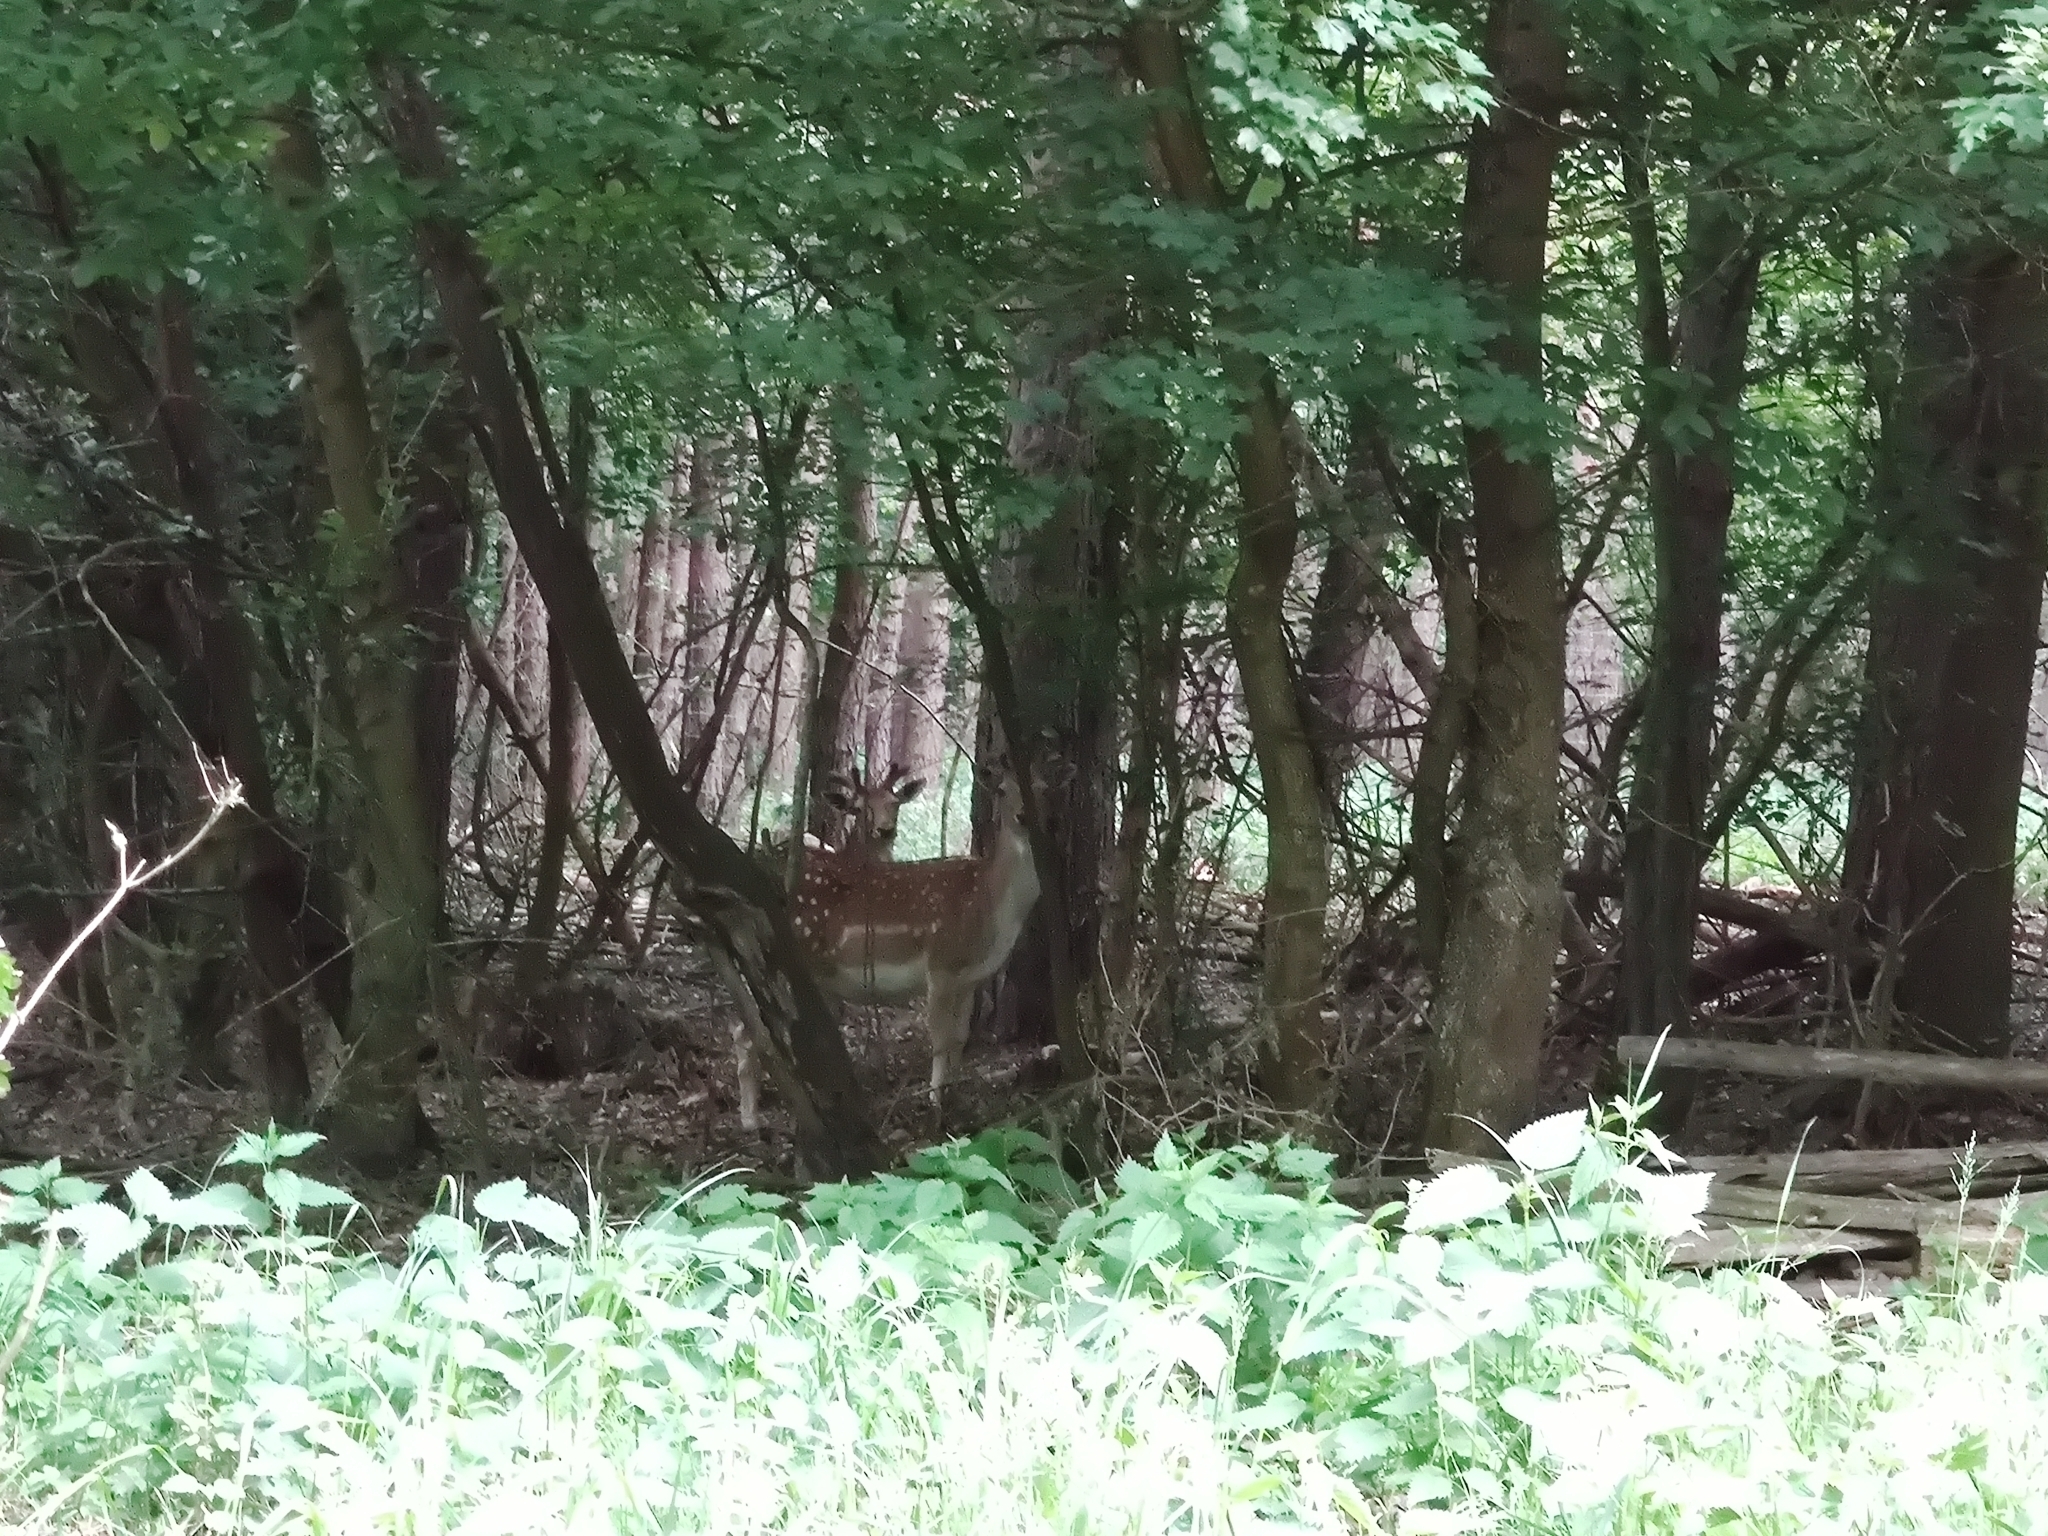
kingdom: Animalia
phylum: Chordata
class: Mammalia
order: Artiodactyla
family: Cervidae
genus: Dama
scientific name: Dama dama
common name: Fallow deer
